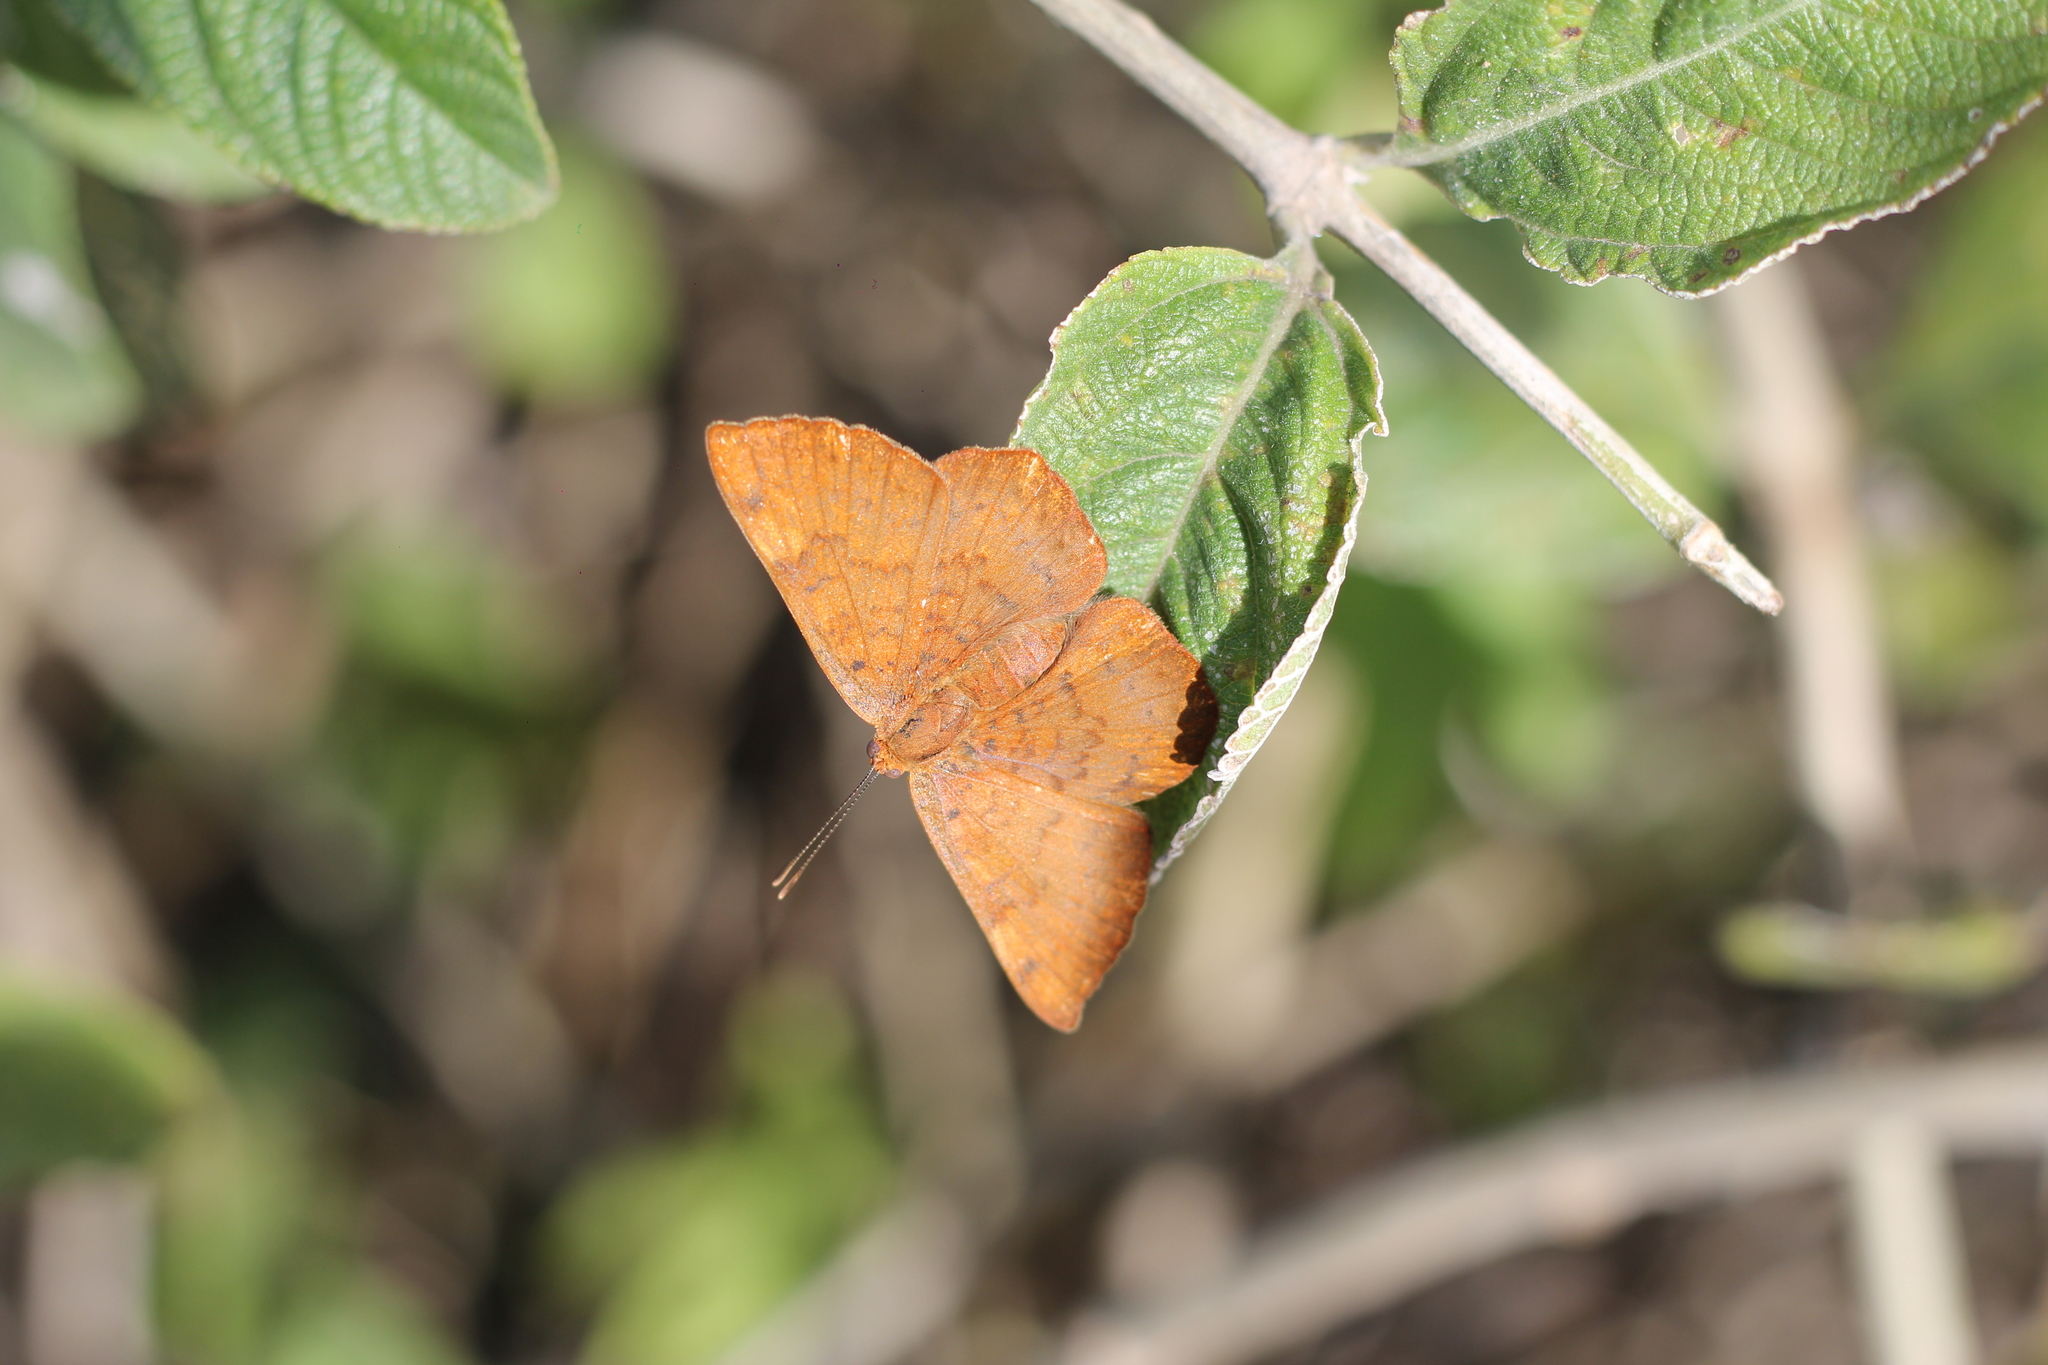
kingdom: Animalia
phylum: Arthropoda
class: Insecta
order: Lepidoptera
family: Lycaenidae
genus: Emesis
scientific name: Emesis russula
